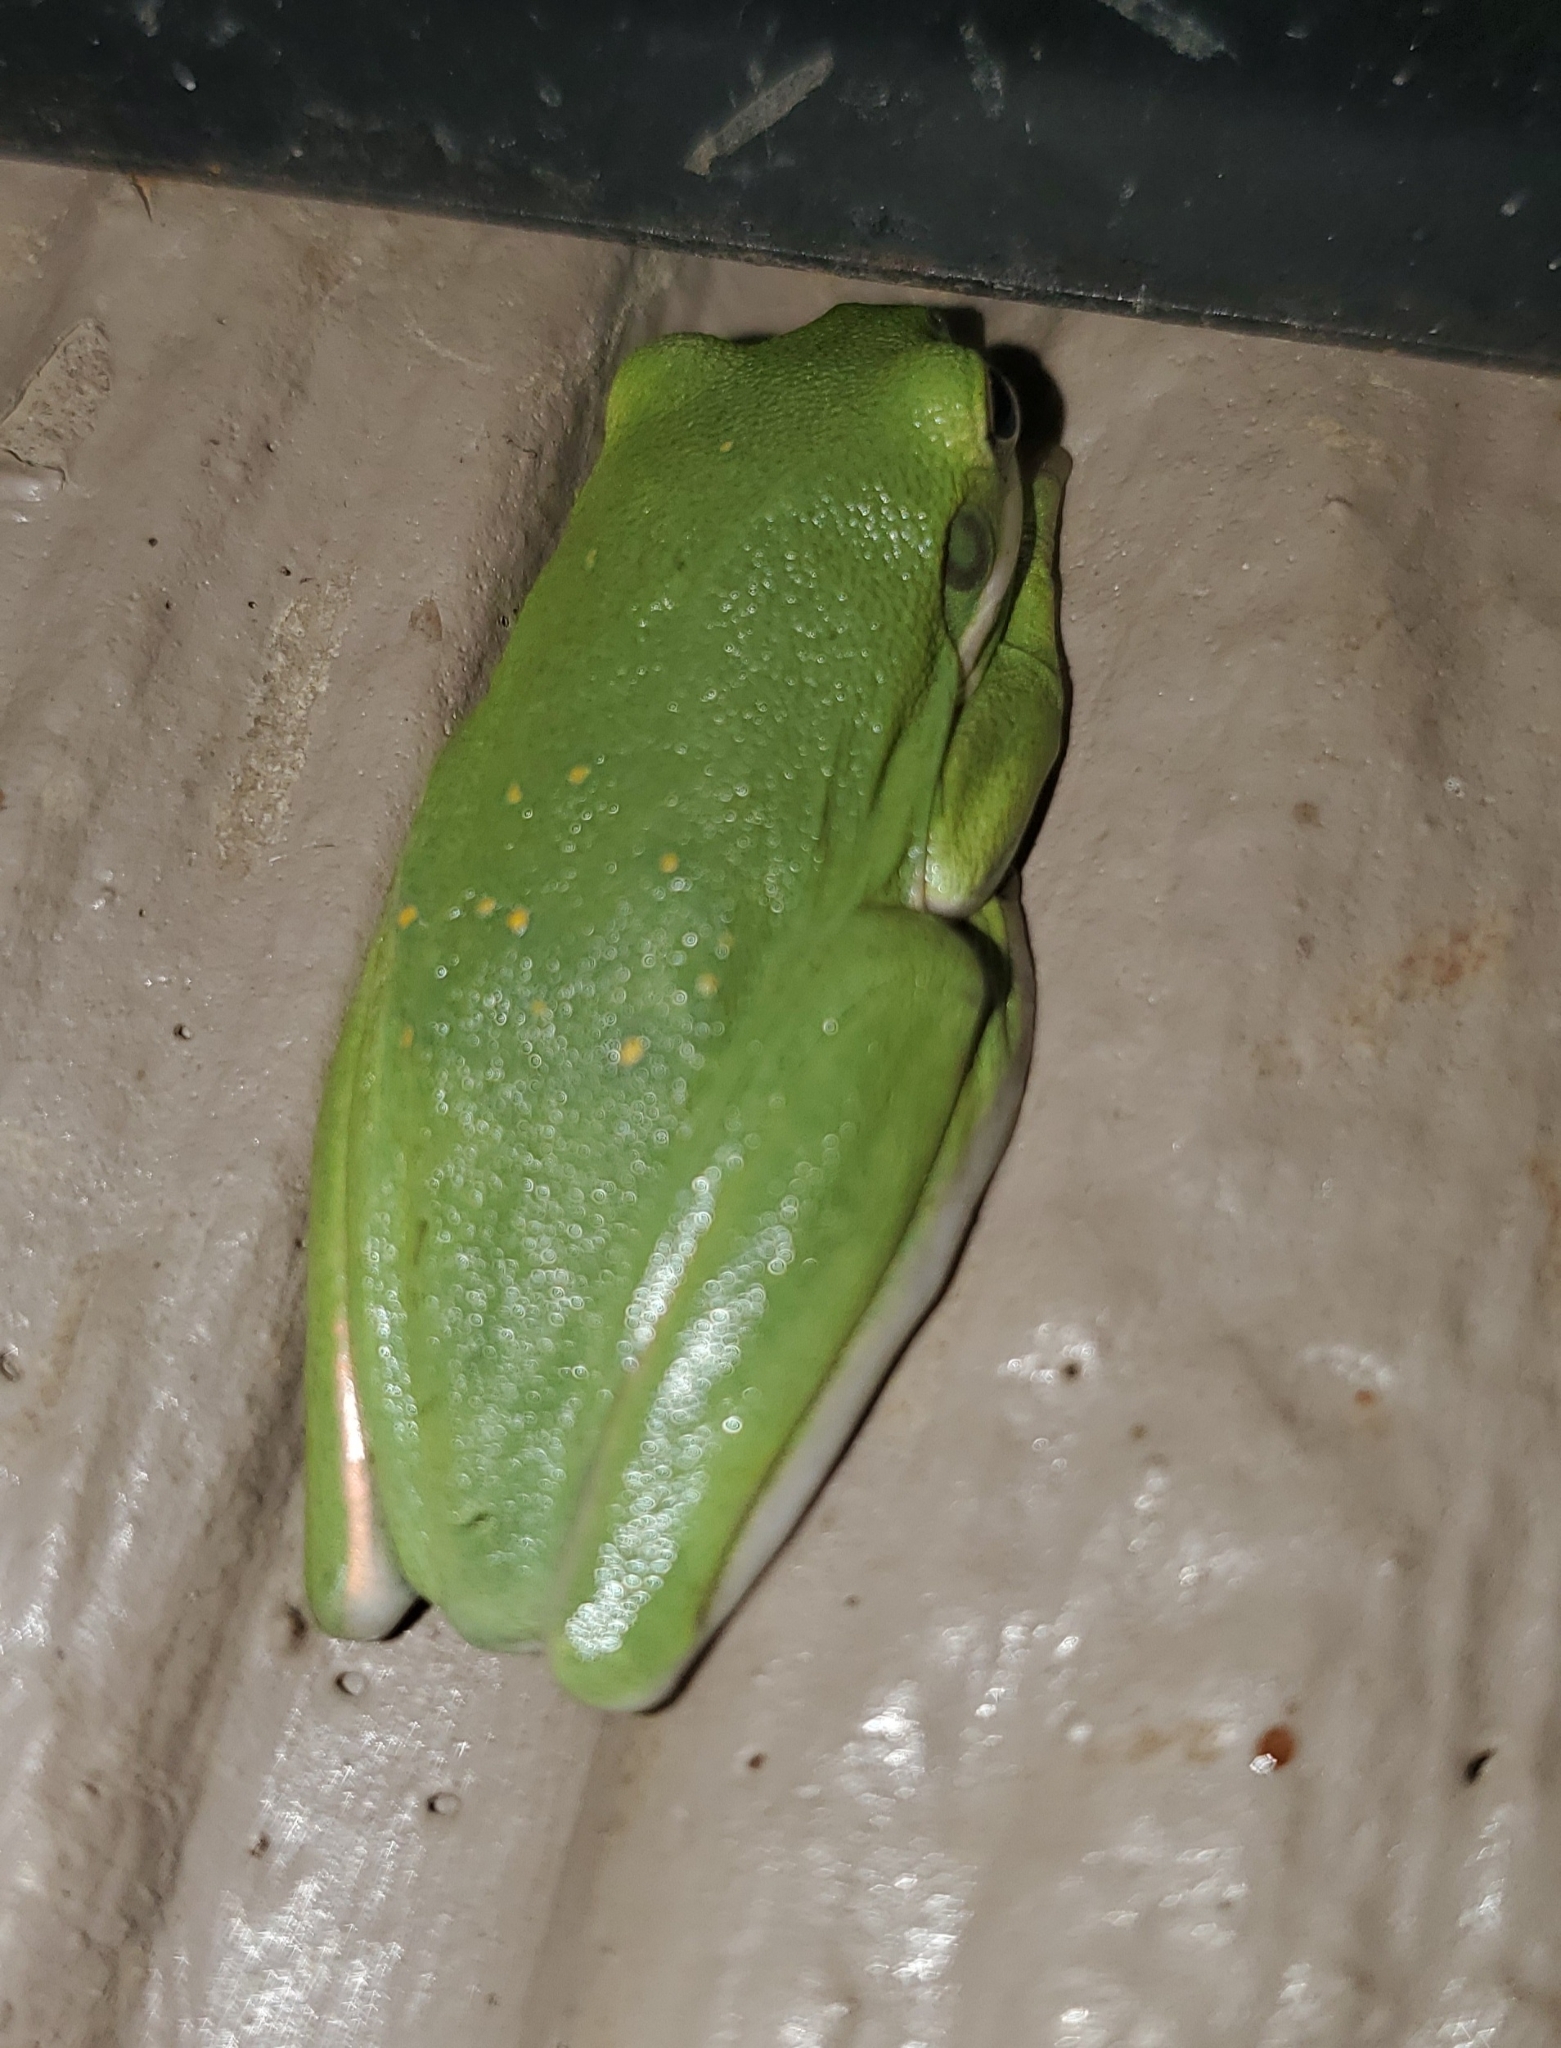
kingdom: Animalia
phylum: Chordata
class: Amphibia
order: Anura
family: Hylidae
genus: Dryophytes
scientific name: Dryophytes cinereus
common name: Green treefrog
